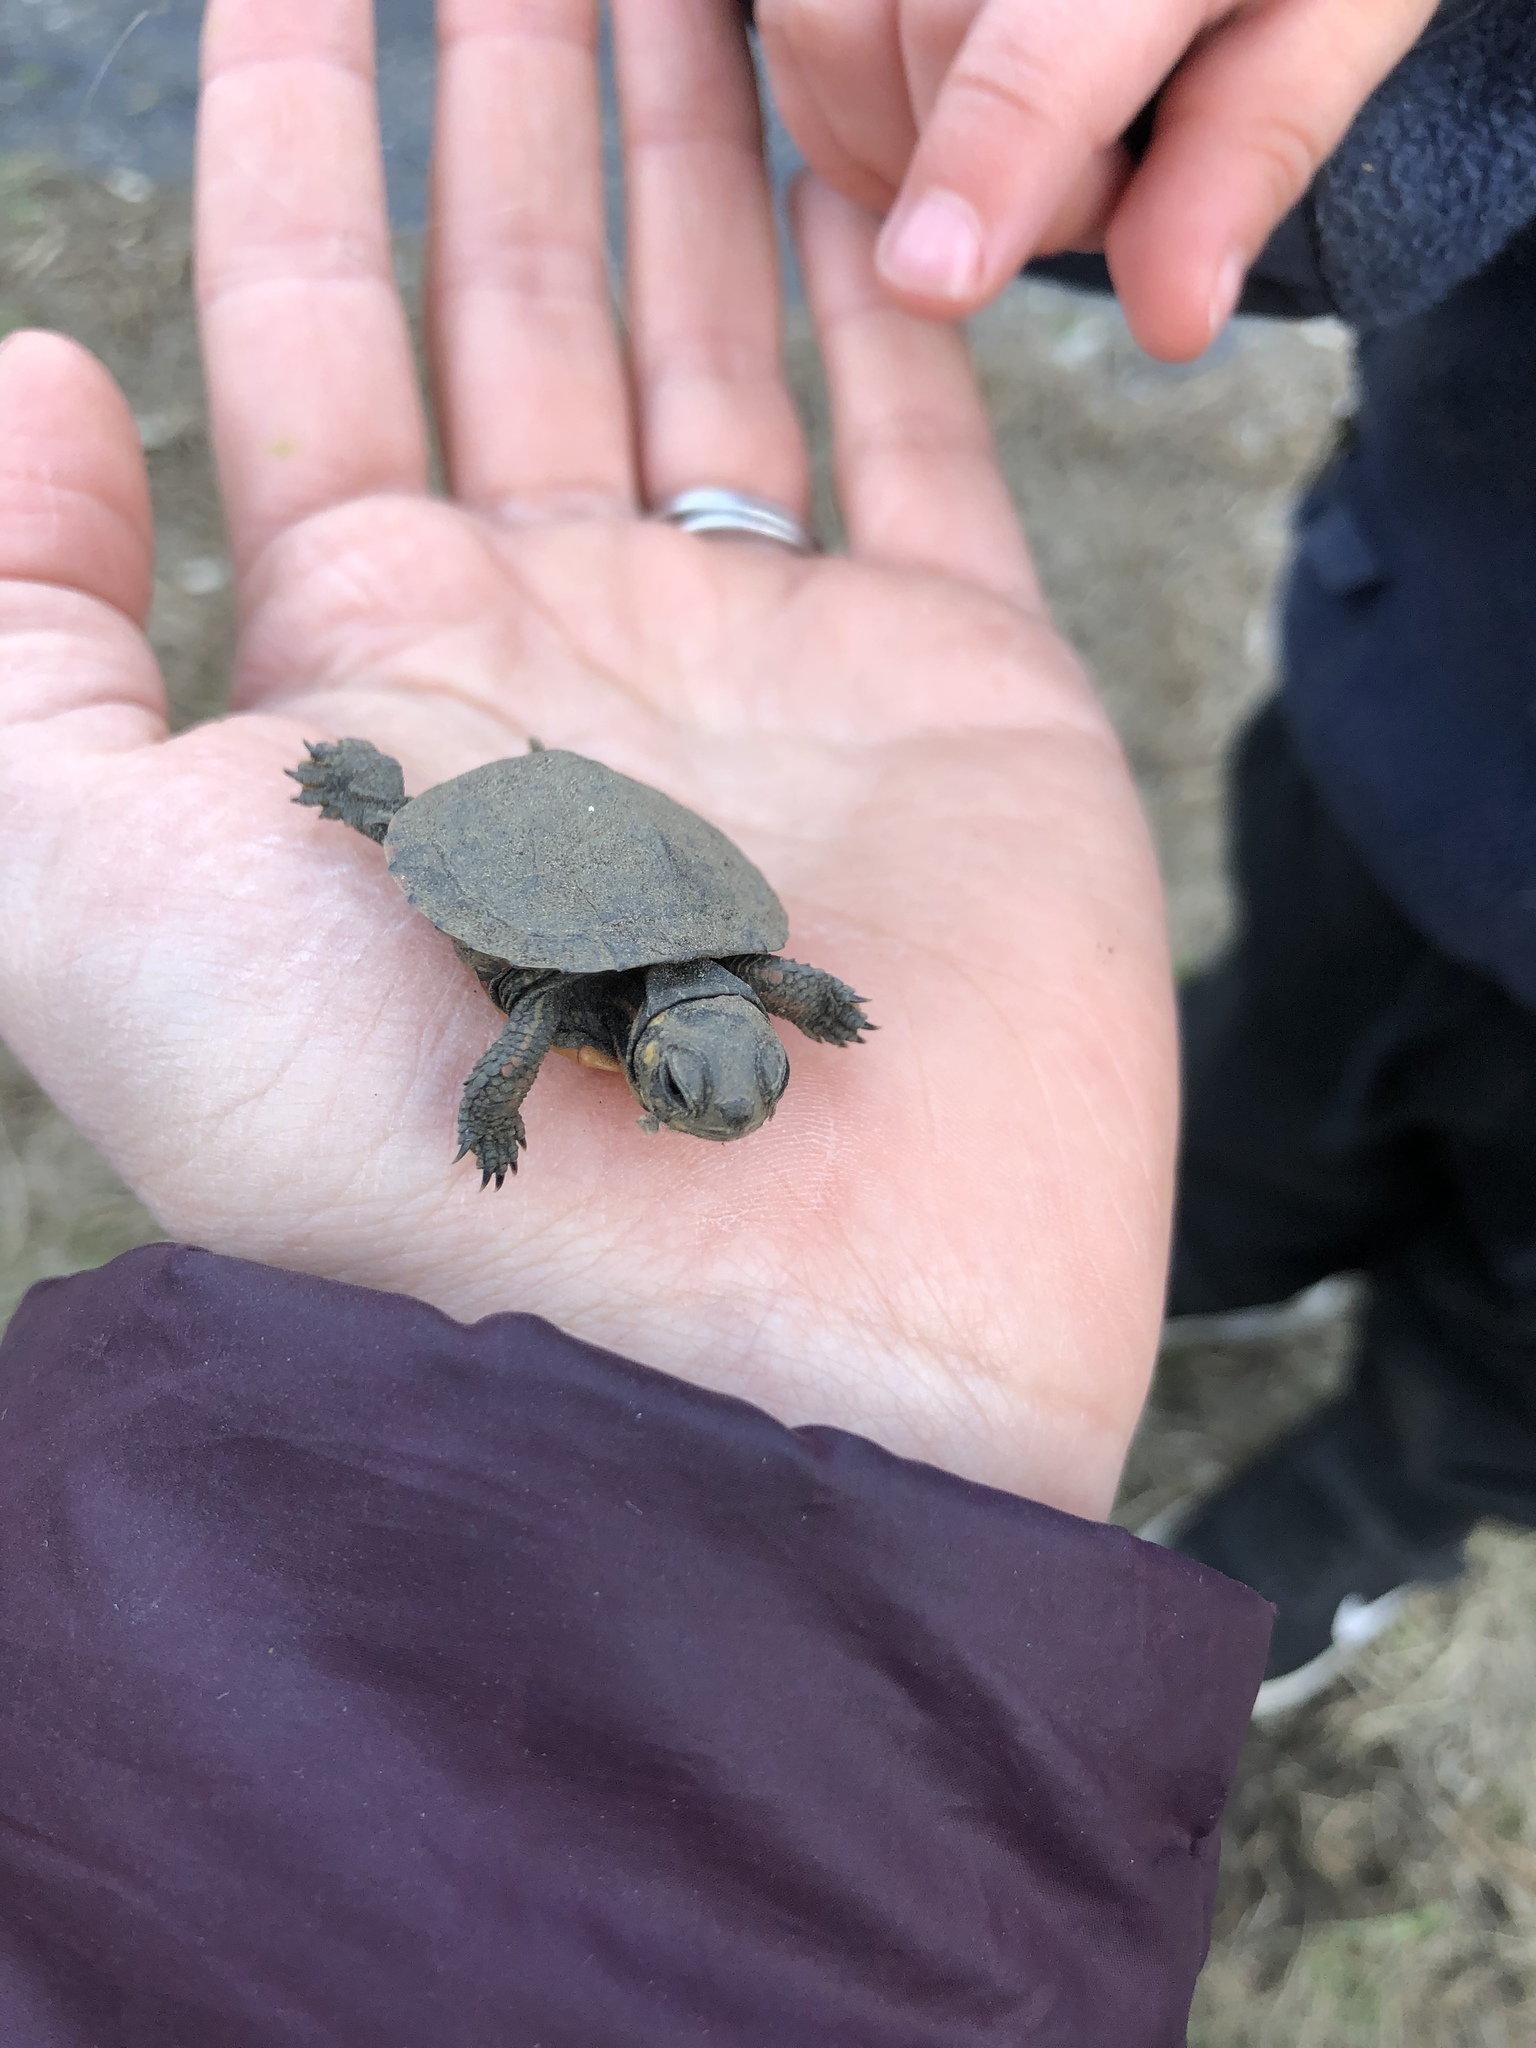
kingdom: Animalia
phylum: Chordata
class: Testudines
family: Emydidae
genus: Chrysemys
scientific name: Chrysemys picta
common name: Painted turtle
